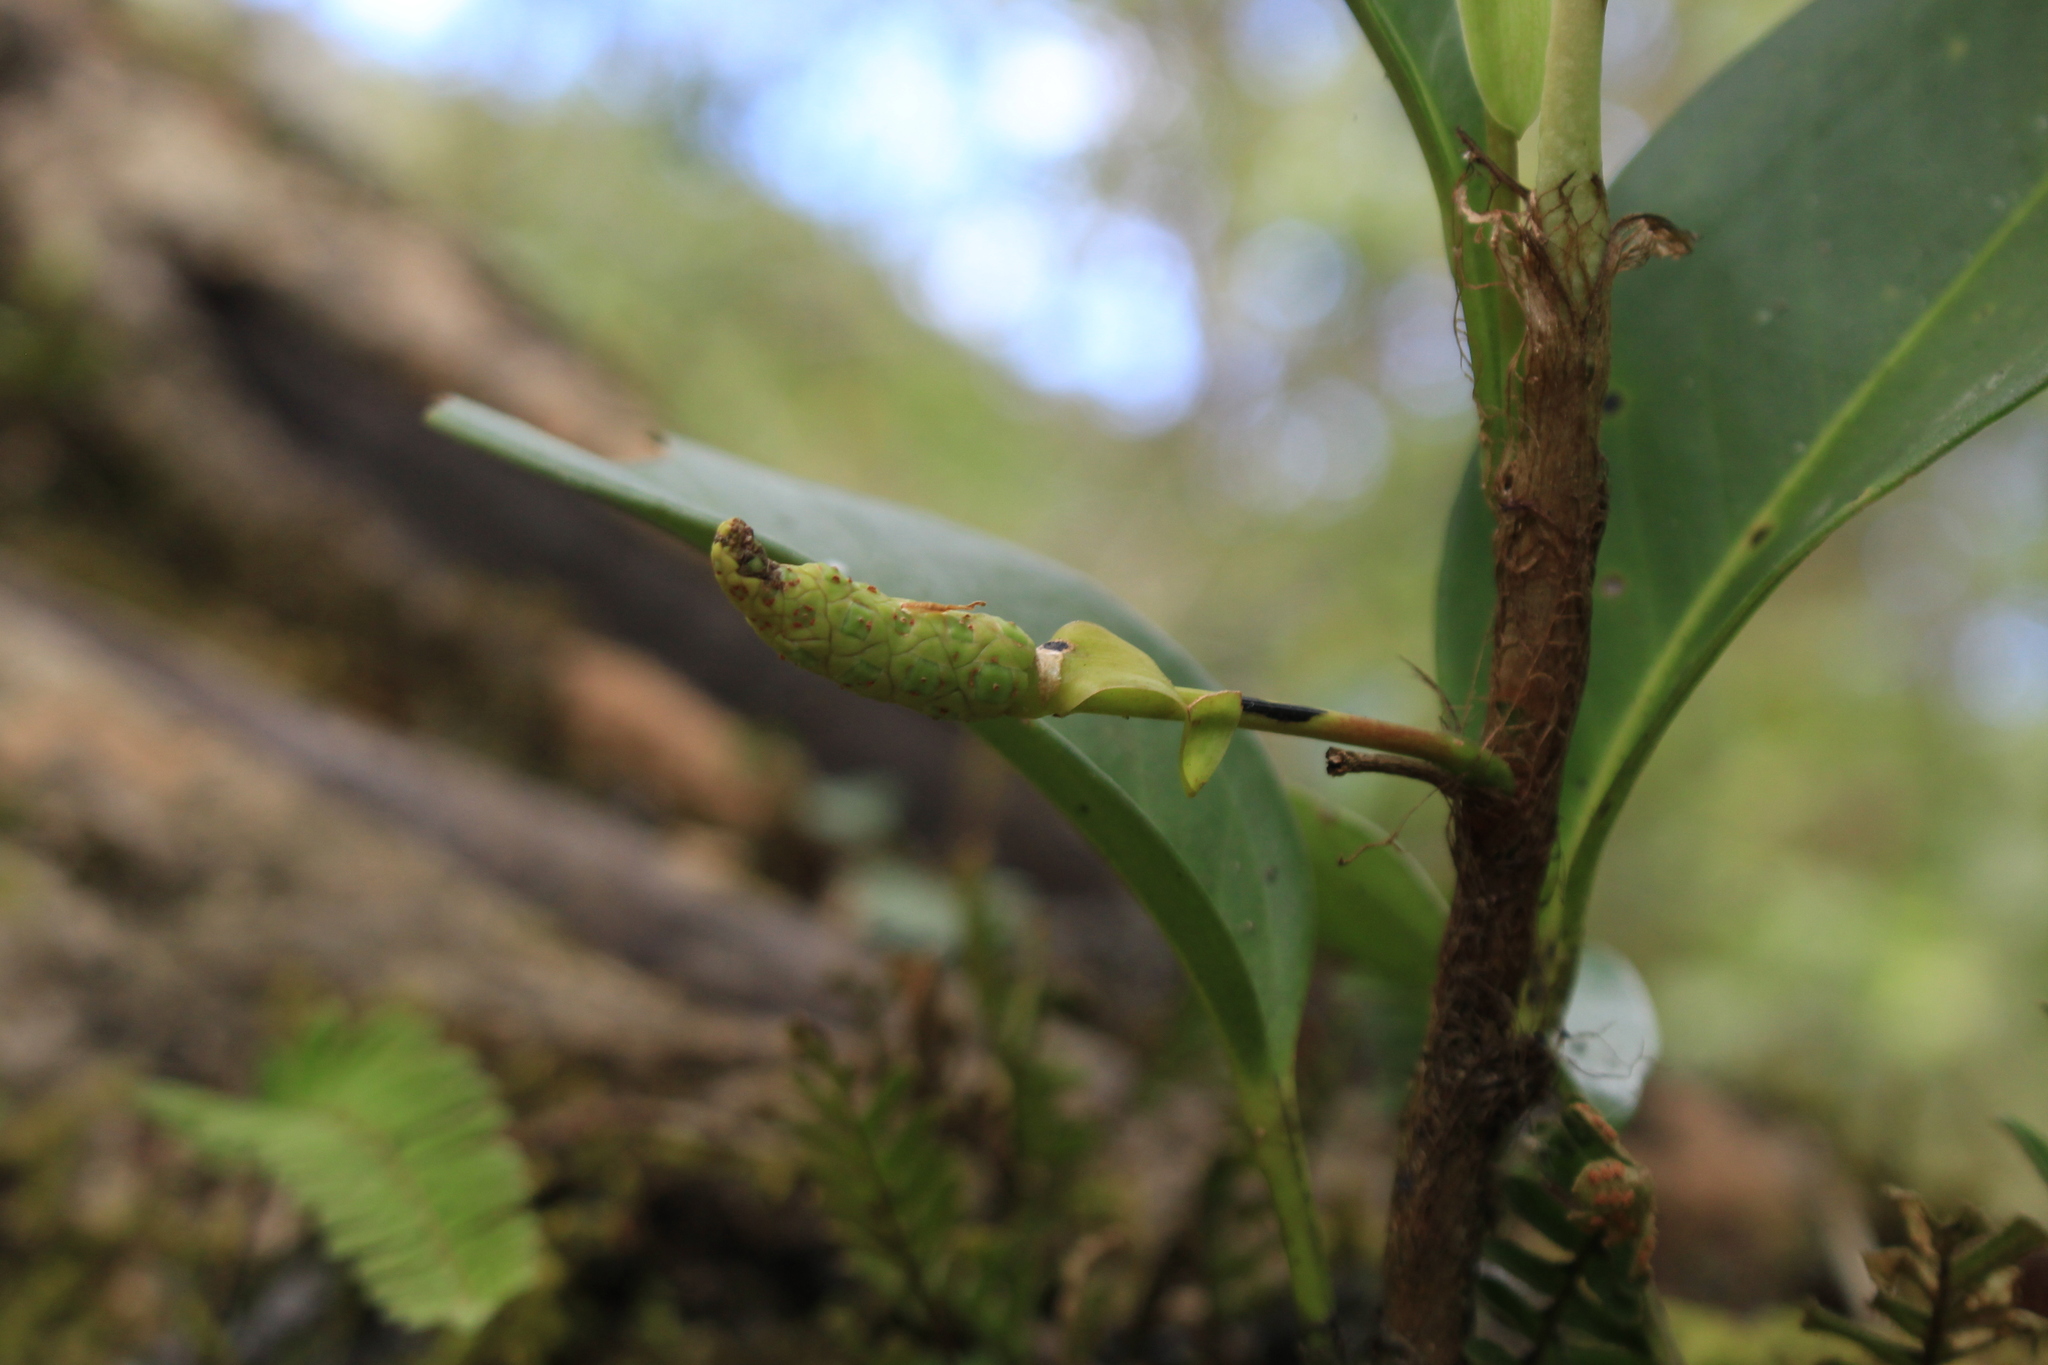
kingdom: Plantae
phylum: Tracheophyta
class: Liliopsida
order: Alismatales
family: Araceae
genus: Anthurium
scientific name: Anthurium scandens
